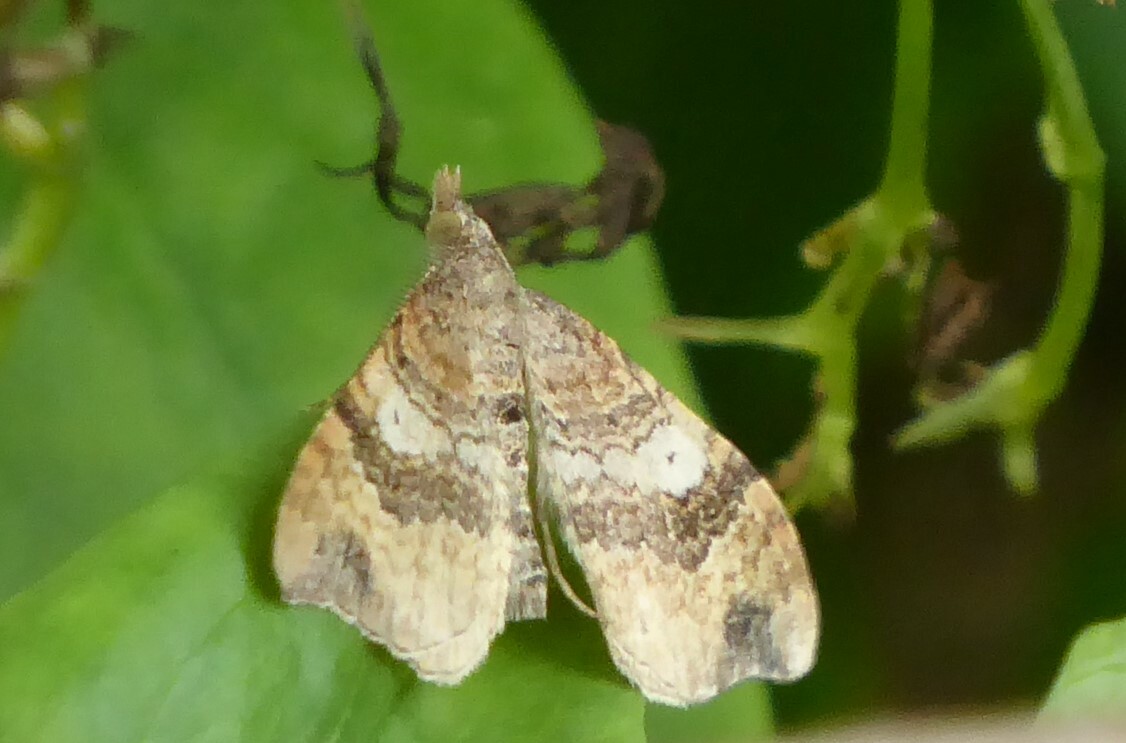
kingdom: Animalia
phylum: Arthropoda
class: Insecta
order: Lepidoptera
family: Geometridae
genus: Homodotis
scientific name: Homodotis megaspilata
